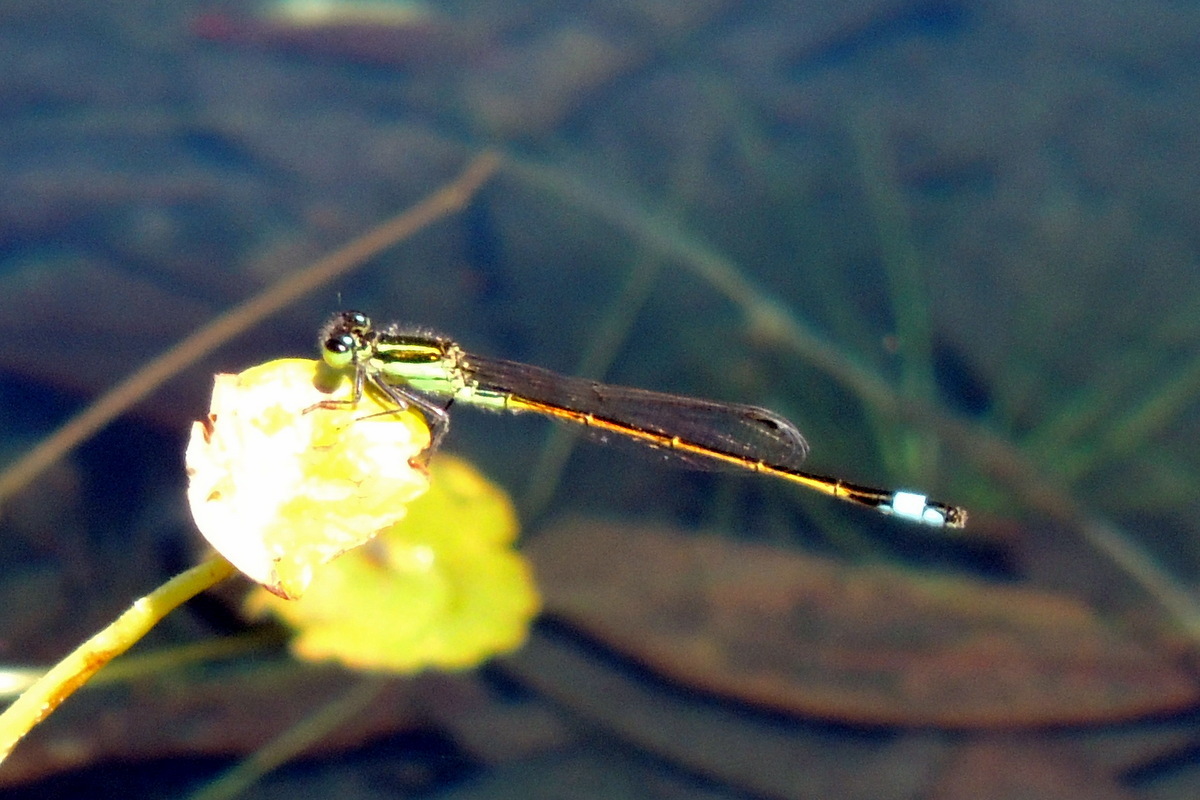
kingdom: Animalia
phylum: Arthropoda
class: Insecta
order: Odonata
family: Coenagrionidae
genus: Ischnura
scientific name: Ischnura ramburii
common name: Rambur's forktail
